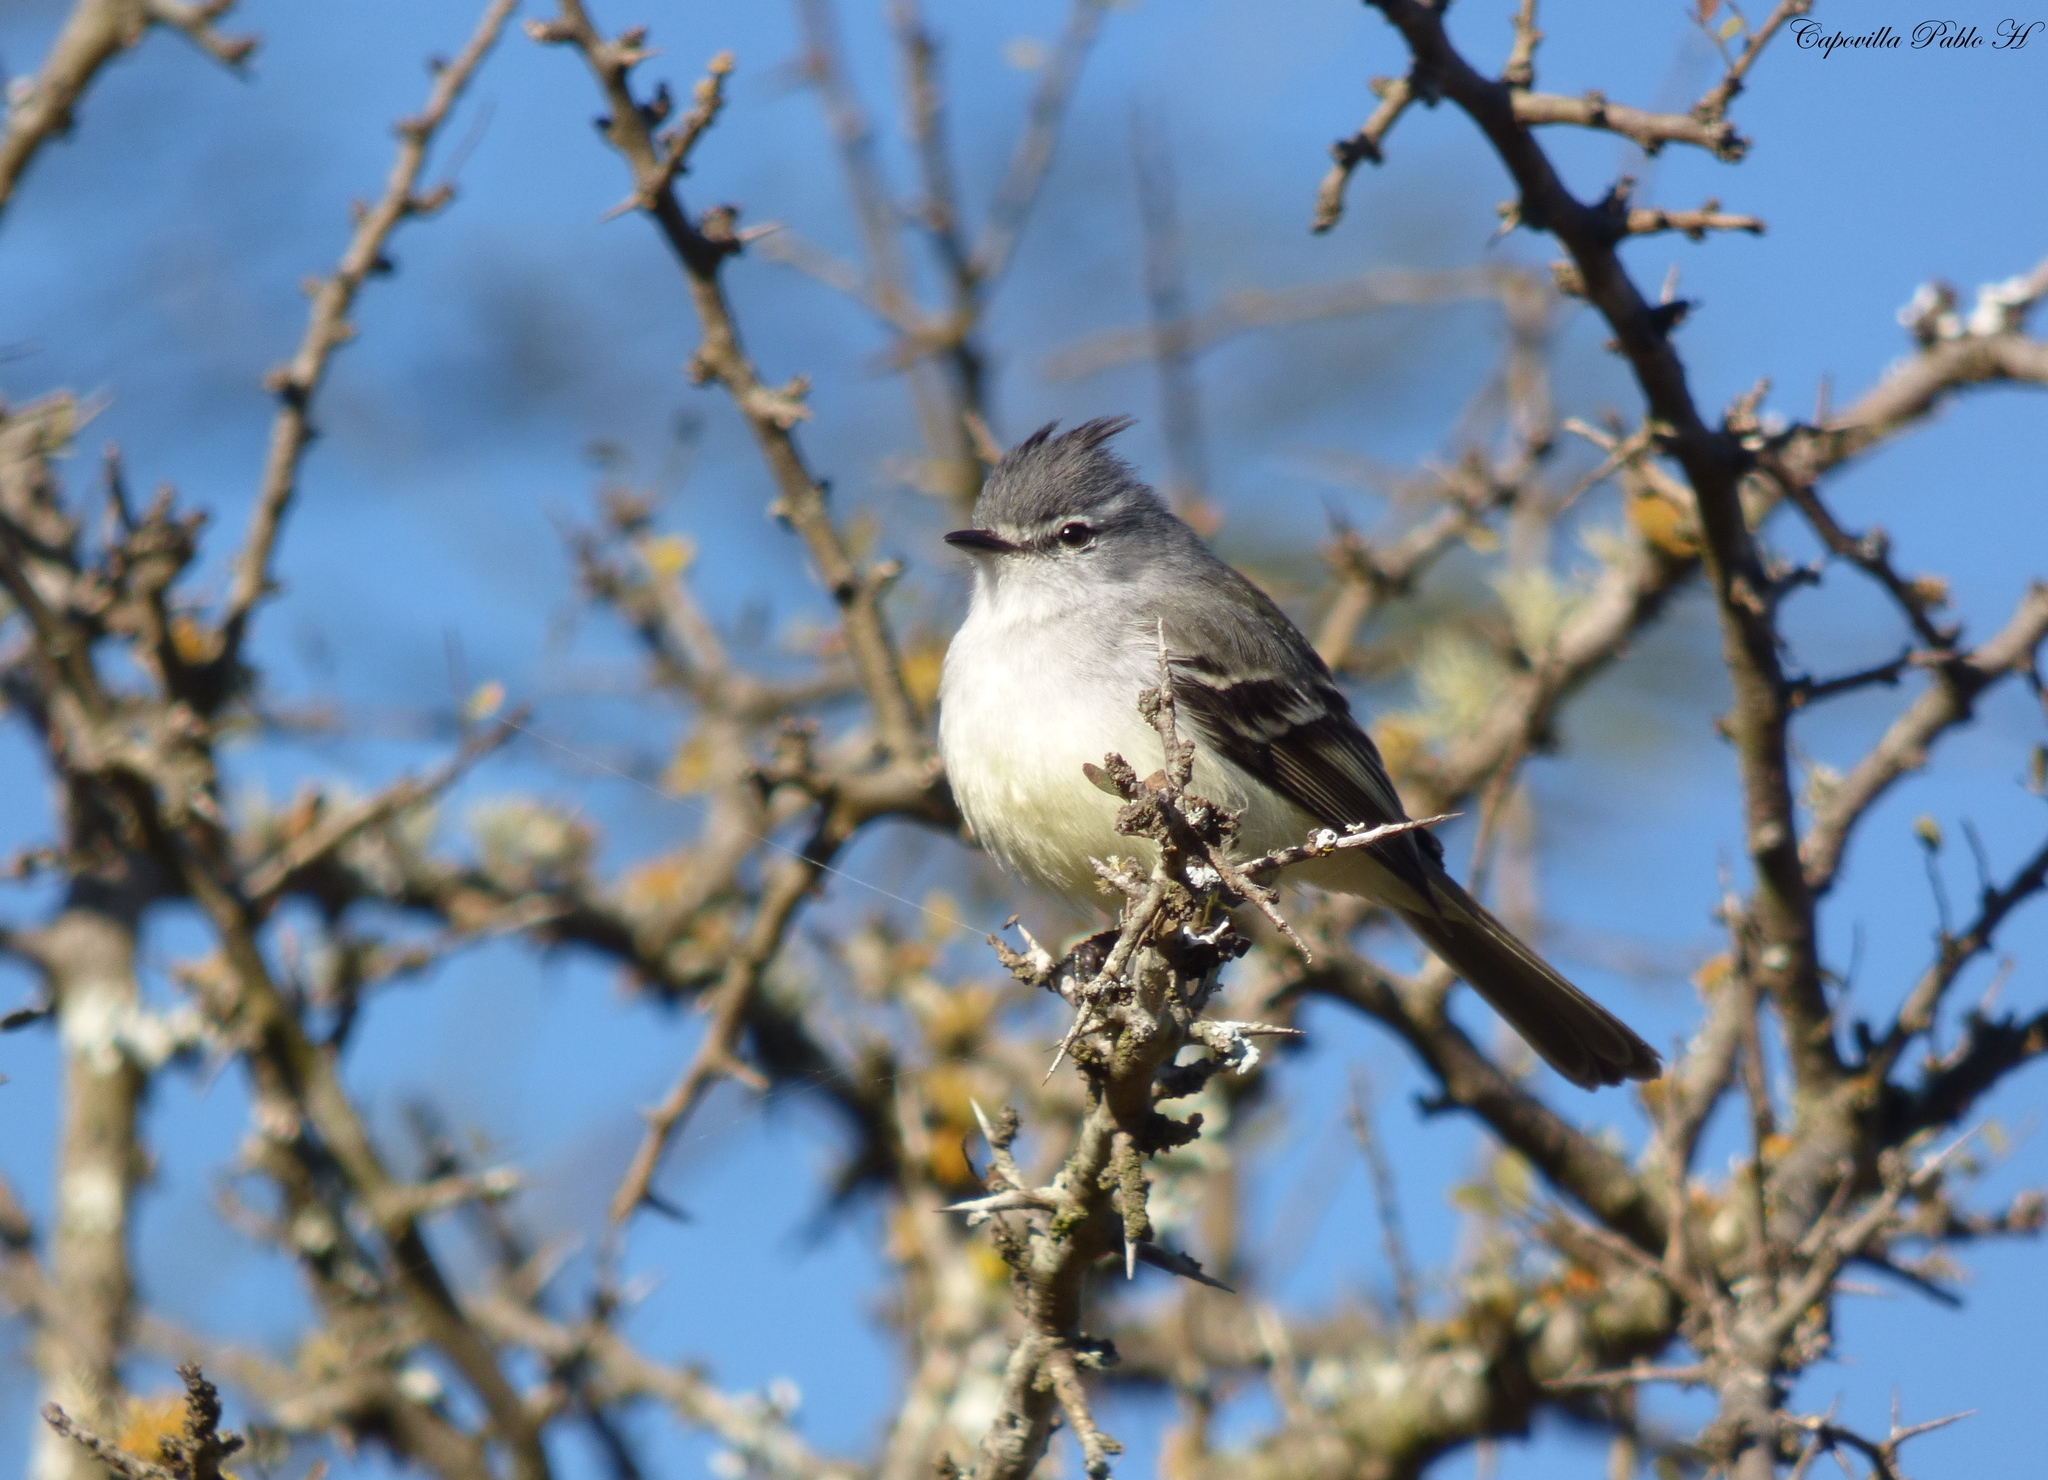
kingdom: Animalia
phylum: Chordata
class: Aves
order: Passeriformes
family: Tyrannidae
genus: Serpophaga
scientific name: Serpophaga subcristata
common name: White-crested tyrannulet
